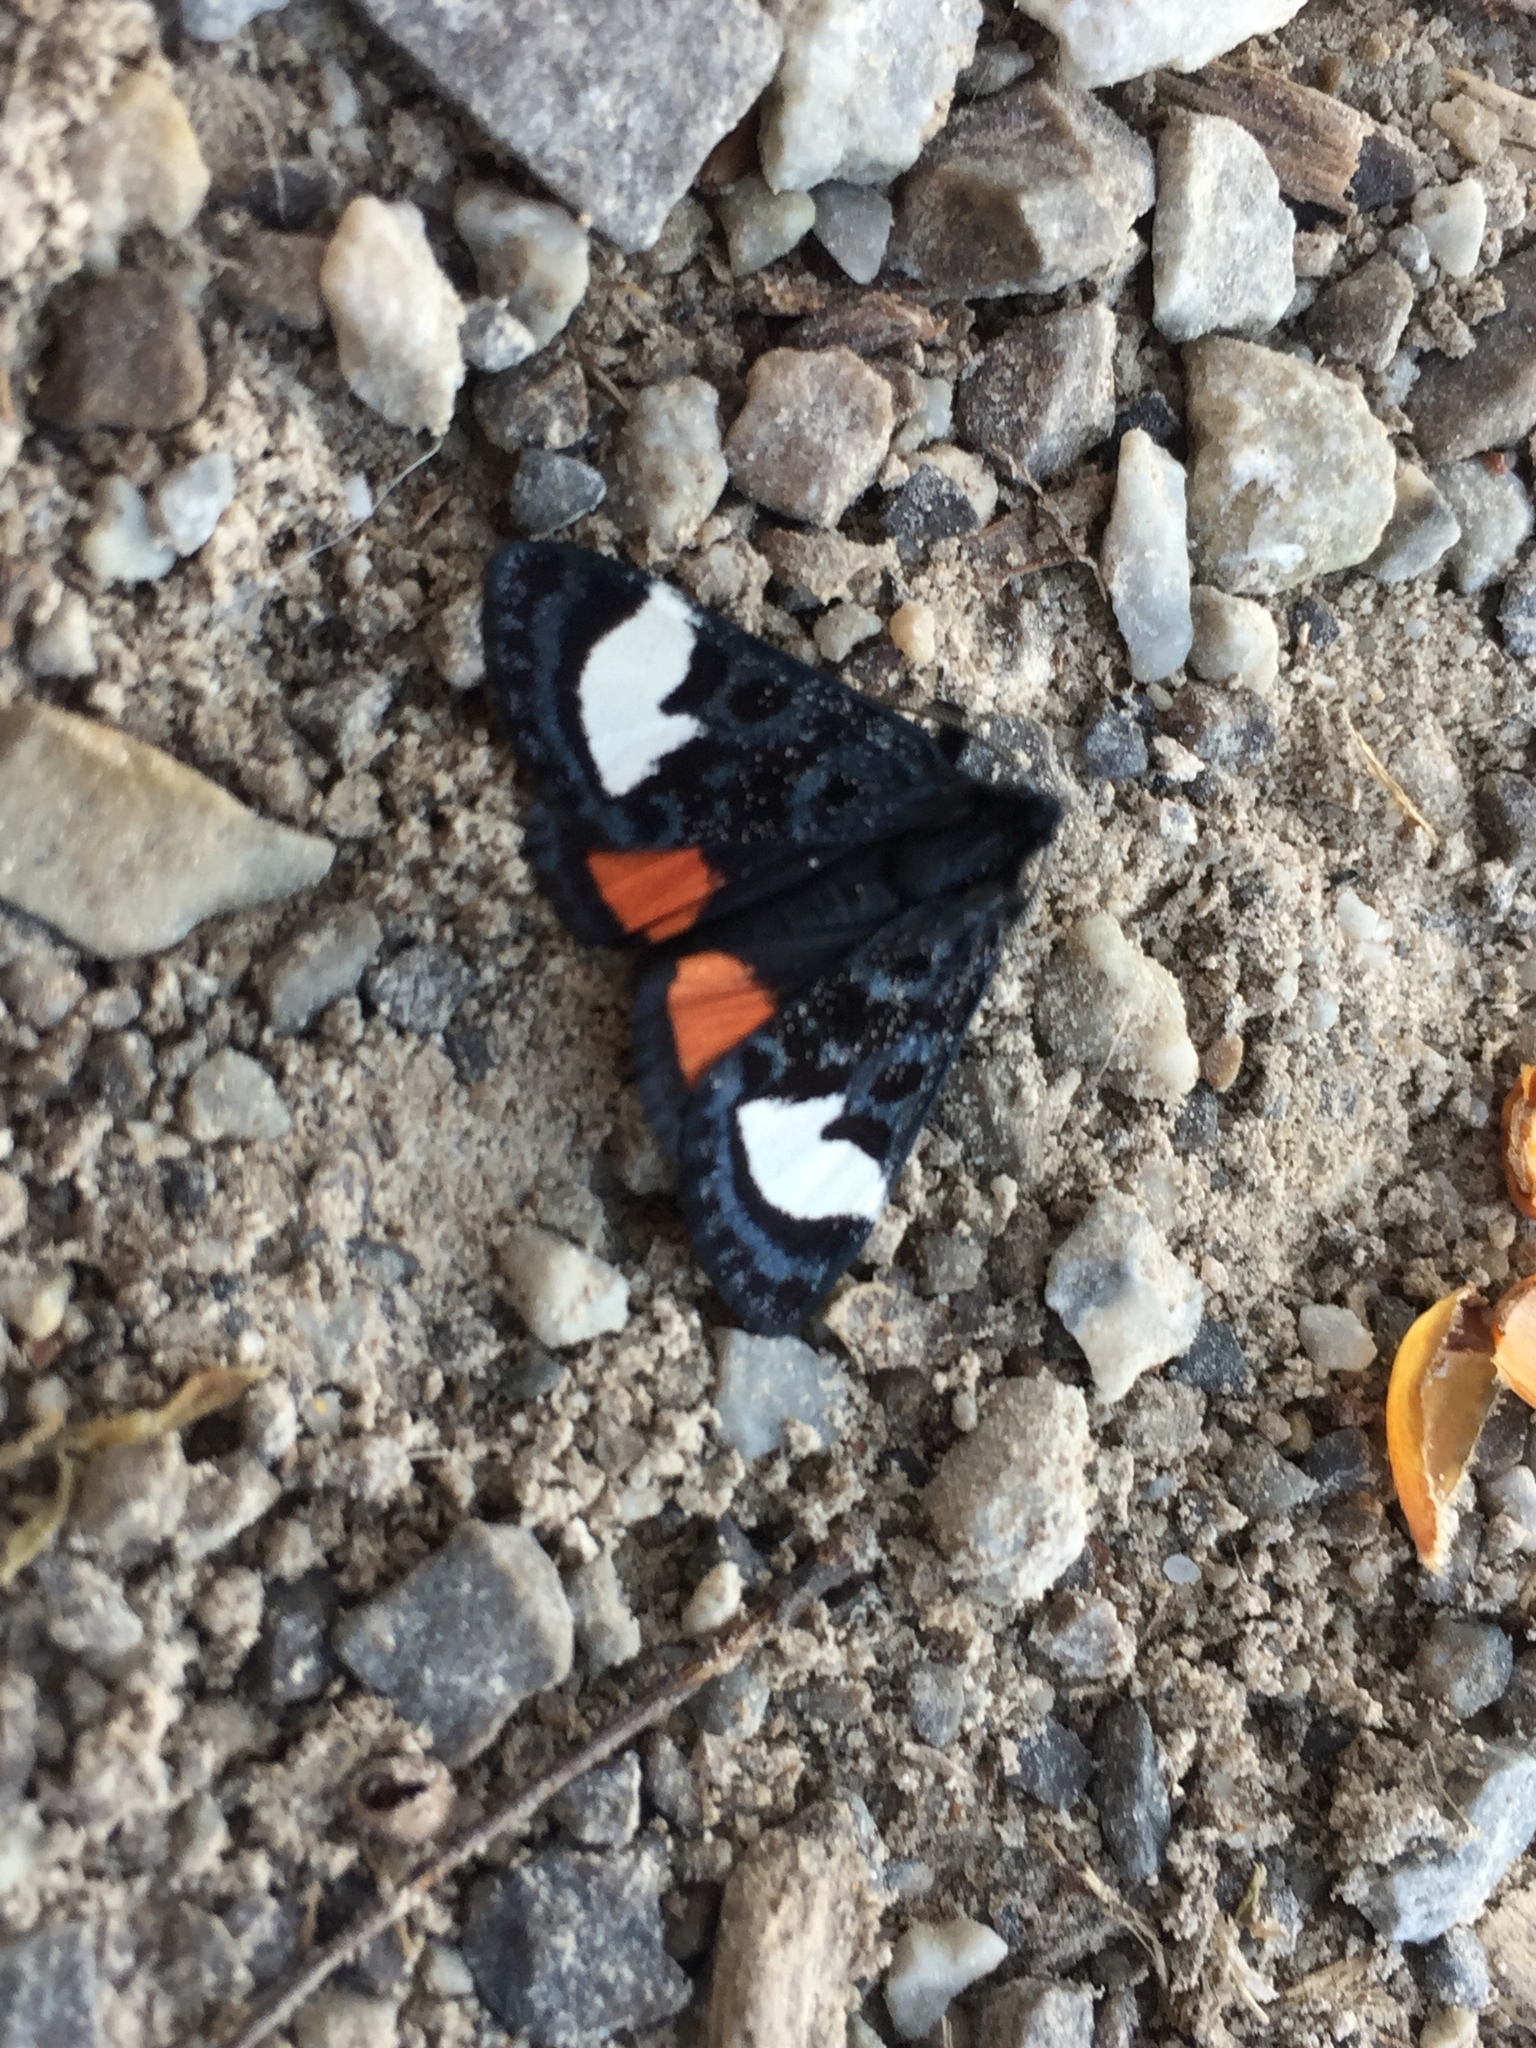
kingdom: Animalia
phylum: Arthropoda
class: Insecta
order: Lepidoptera
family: Noctuidae
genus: Psychomorpha
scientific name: Psychomorpha epimenis
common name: Grapevine epimenis moth
